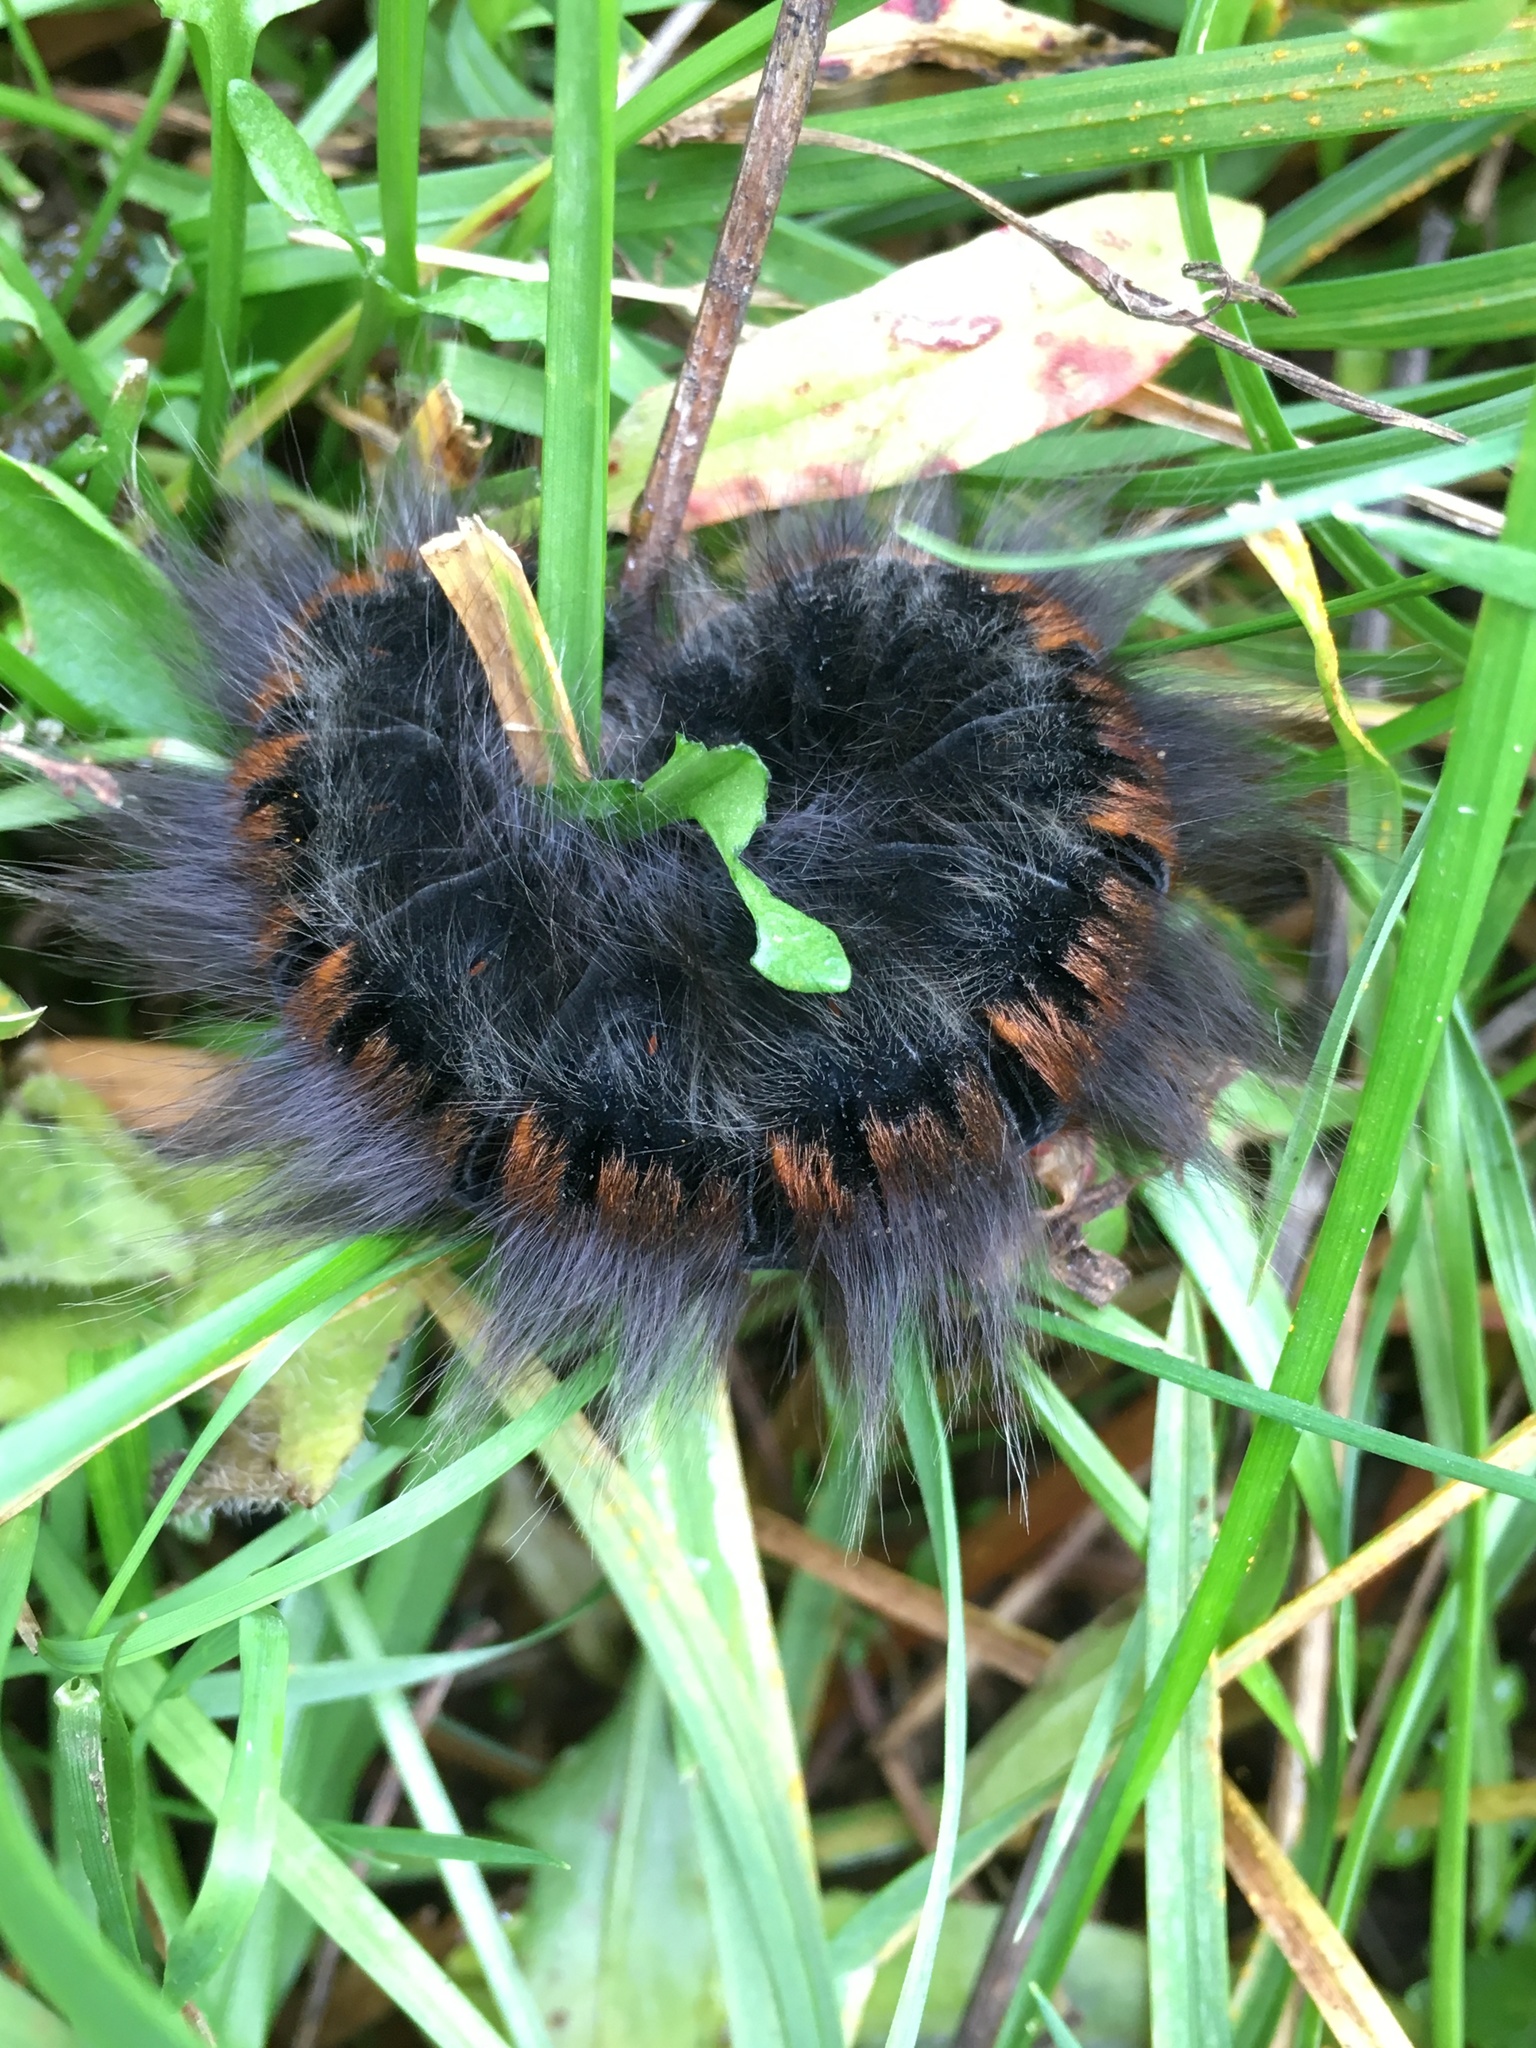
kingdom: Animalia
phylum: Arthropoda
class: Insecta
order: Lepidoptera
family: Lasiocampidae
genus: Macrothylacia
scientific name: Macrothylacia rubi
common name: Fox moth
